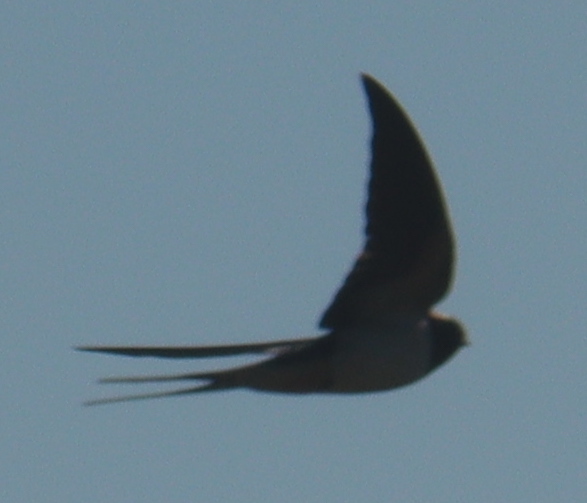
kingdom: Animalia
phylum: Chordata
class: Aves
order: Passeriformes
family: Hirundinidae
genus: Hirundo
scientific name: Hirundo rustica
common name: Barn swallow
